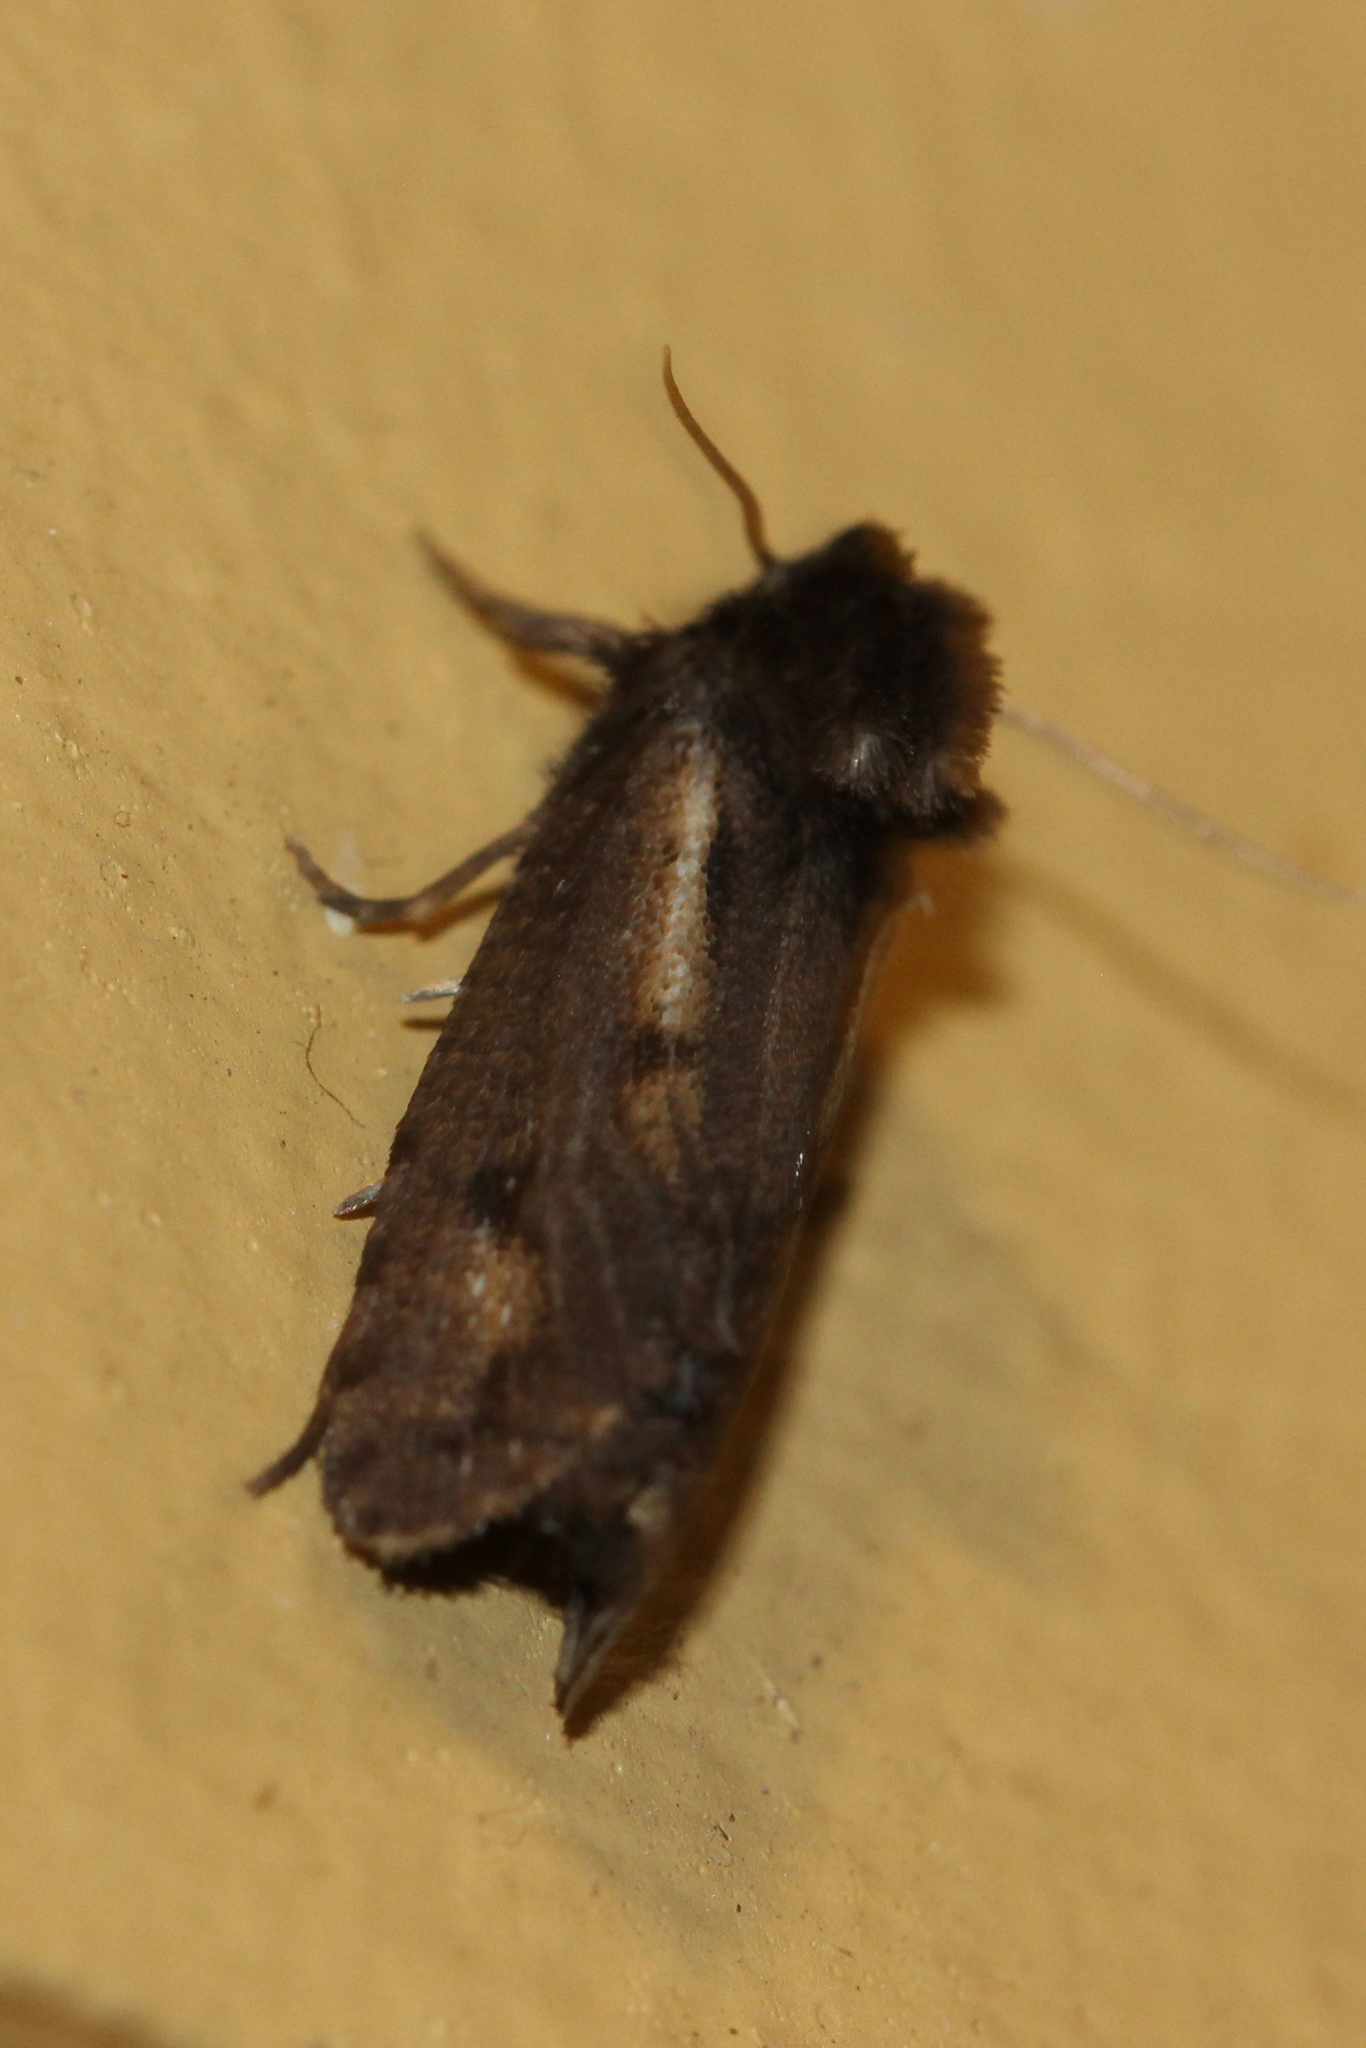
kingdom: Animalia
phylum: Arthropoda
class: Insecta
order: Lepidoptera
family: Tineidae
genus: Acrolophus
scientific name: Acrolophus popeanella
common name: Clemens' grass tubeworm moth
